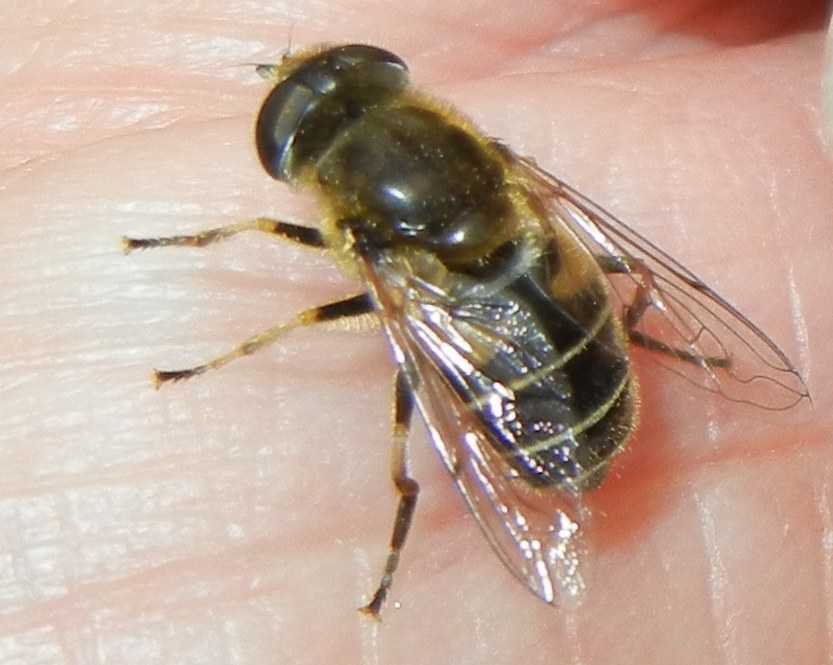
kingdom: Animalia
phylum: Arthropoda
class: Insecta
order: Diptera
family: Syrphidae
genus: Eristalis
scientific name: Eristalis nemorum
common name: Orange-spined drone fly
